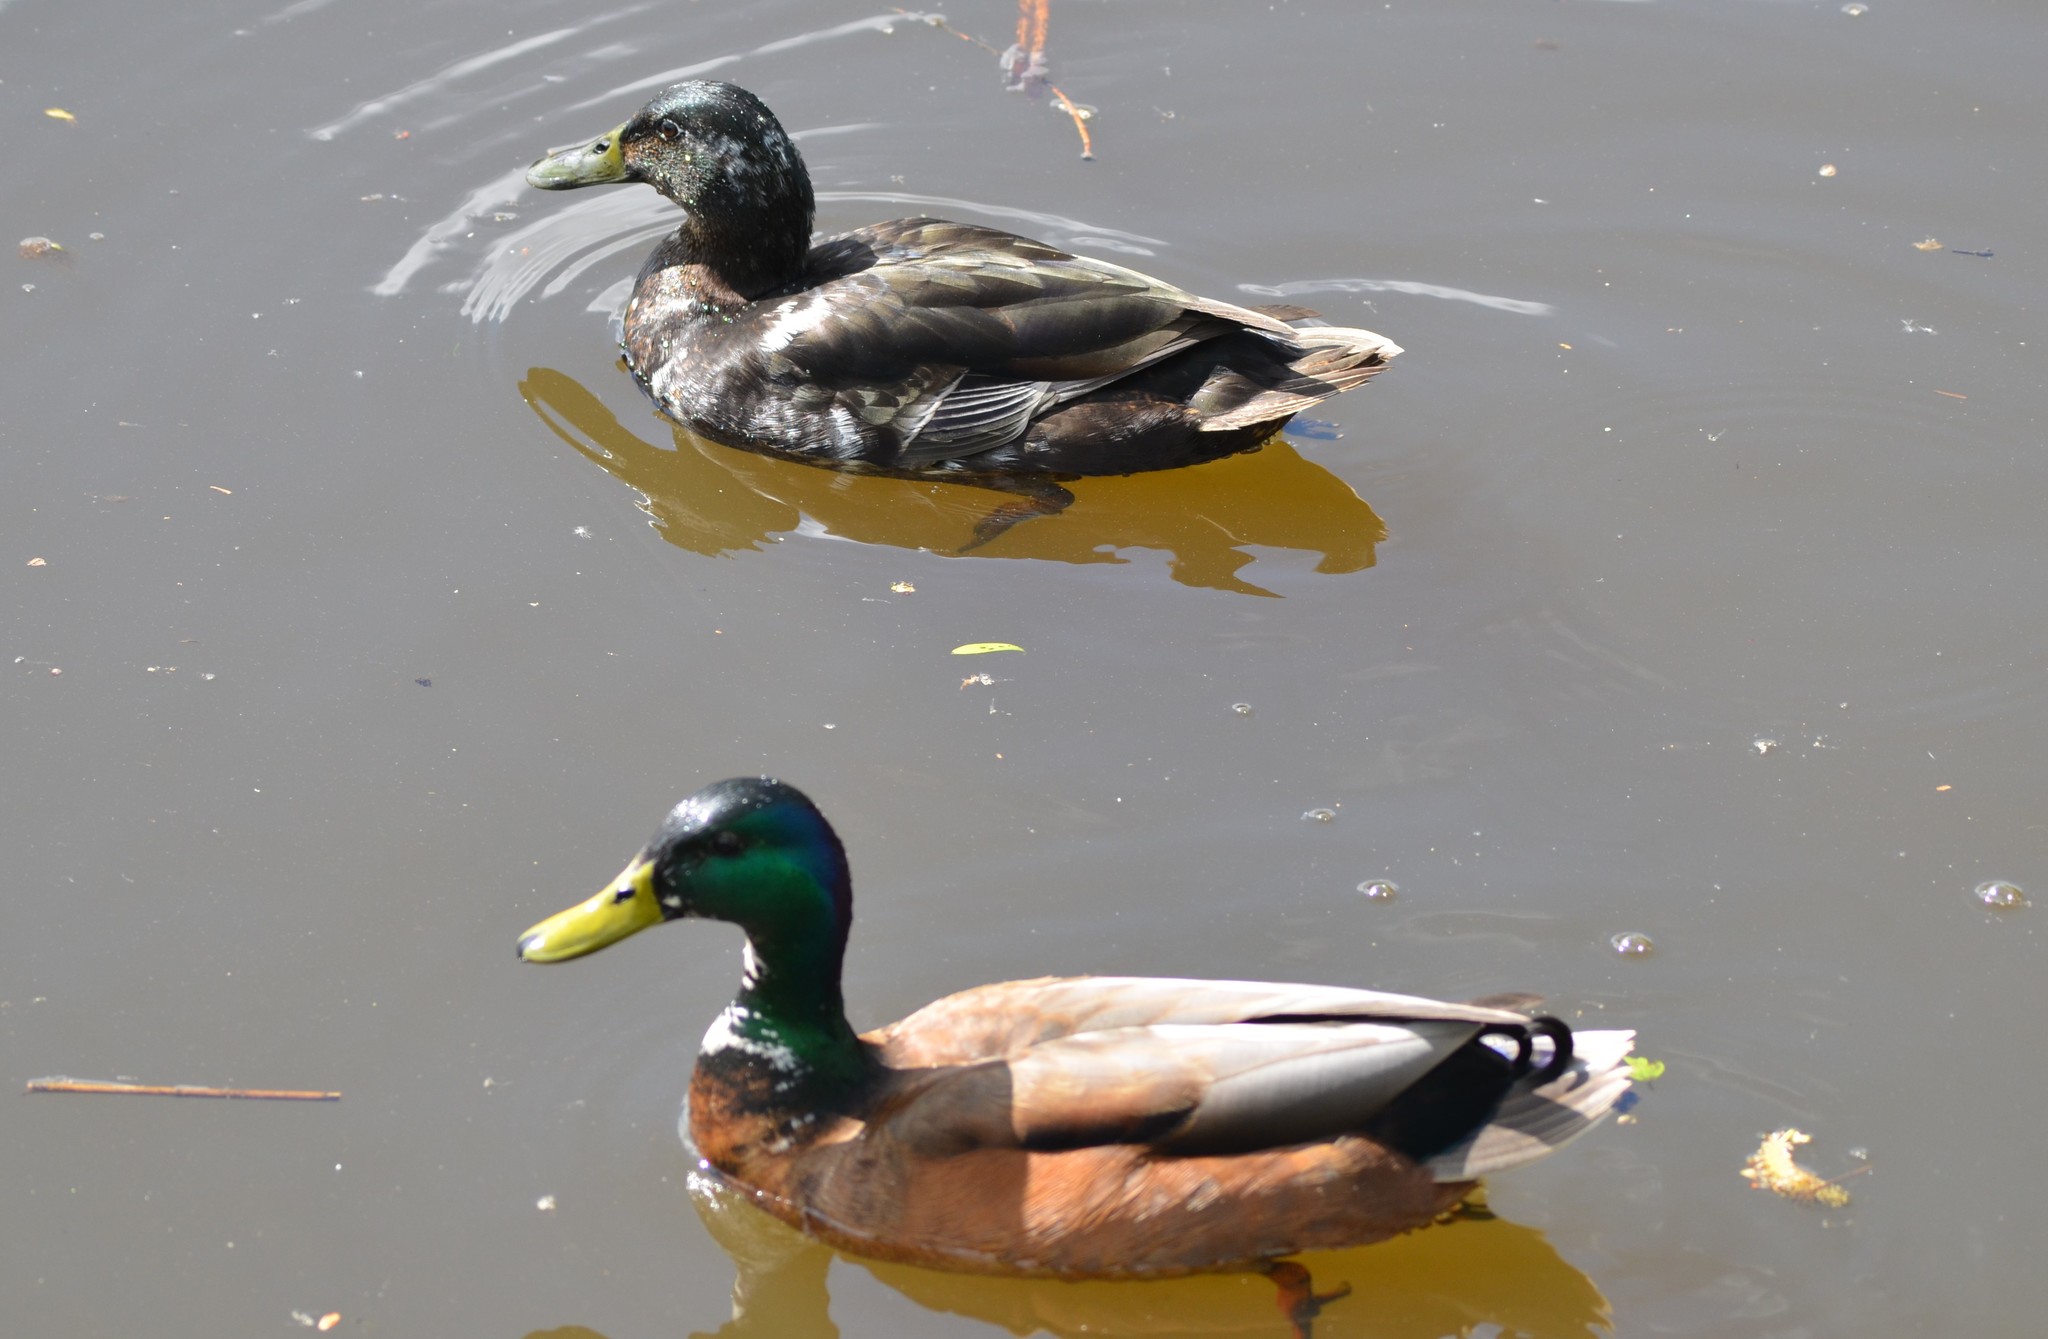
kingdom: Animalia
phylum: Chordata
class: Aves
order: Anseriformes
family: Anatidae
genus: Anas
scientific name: Anas platyrhynchos
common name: Mallard
